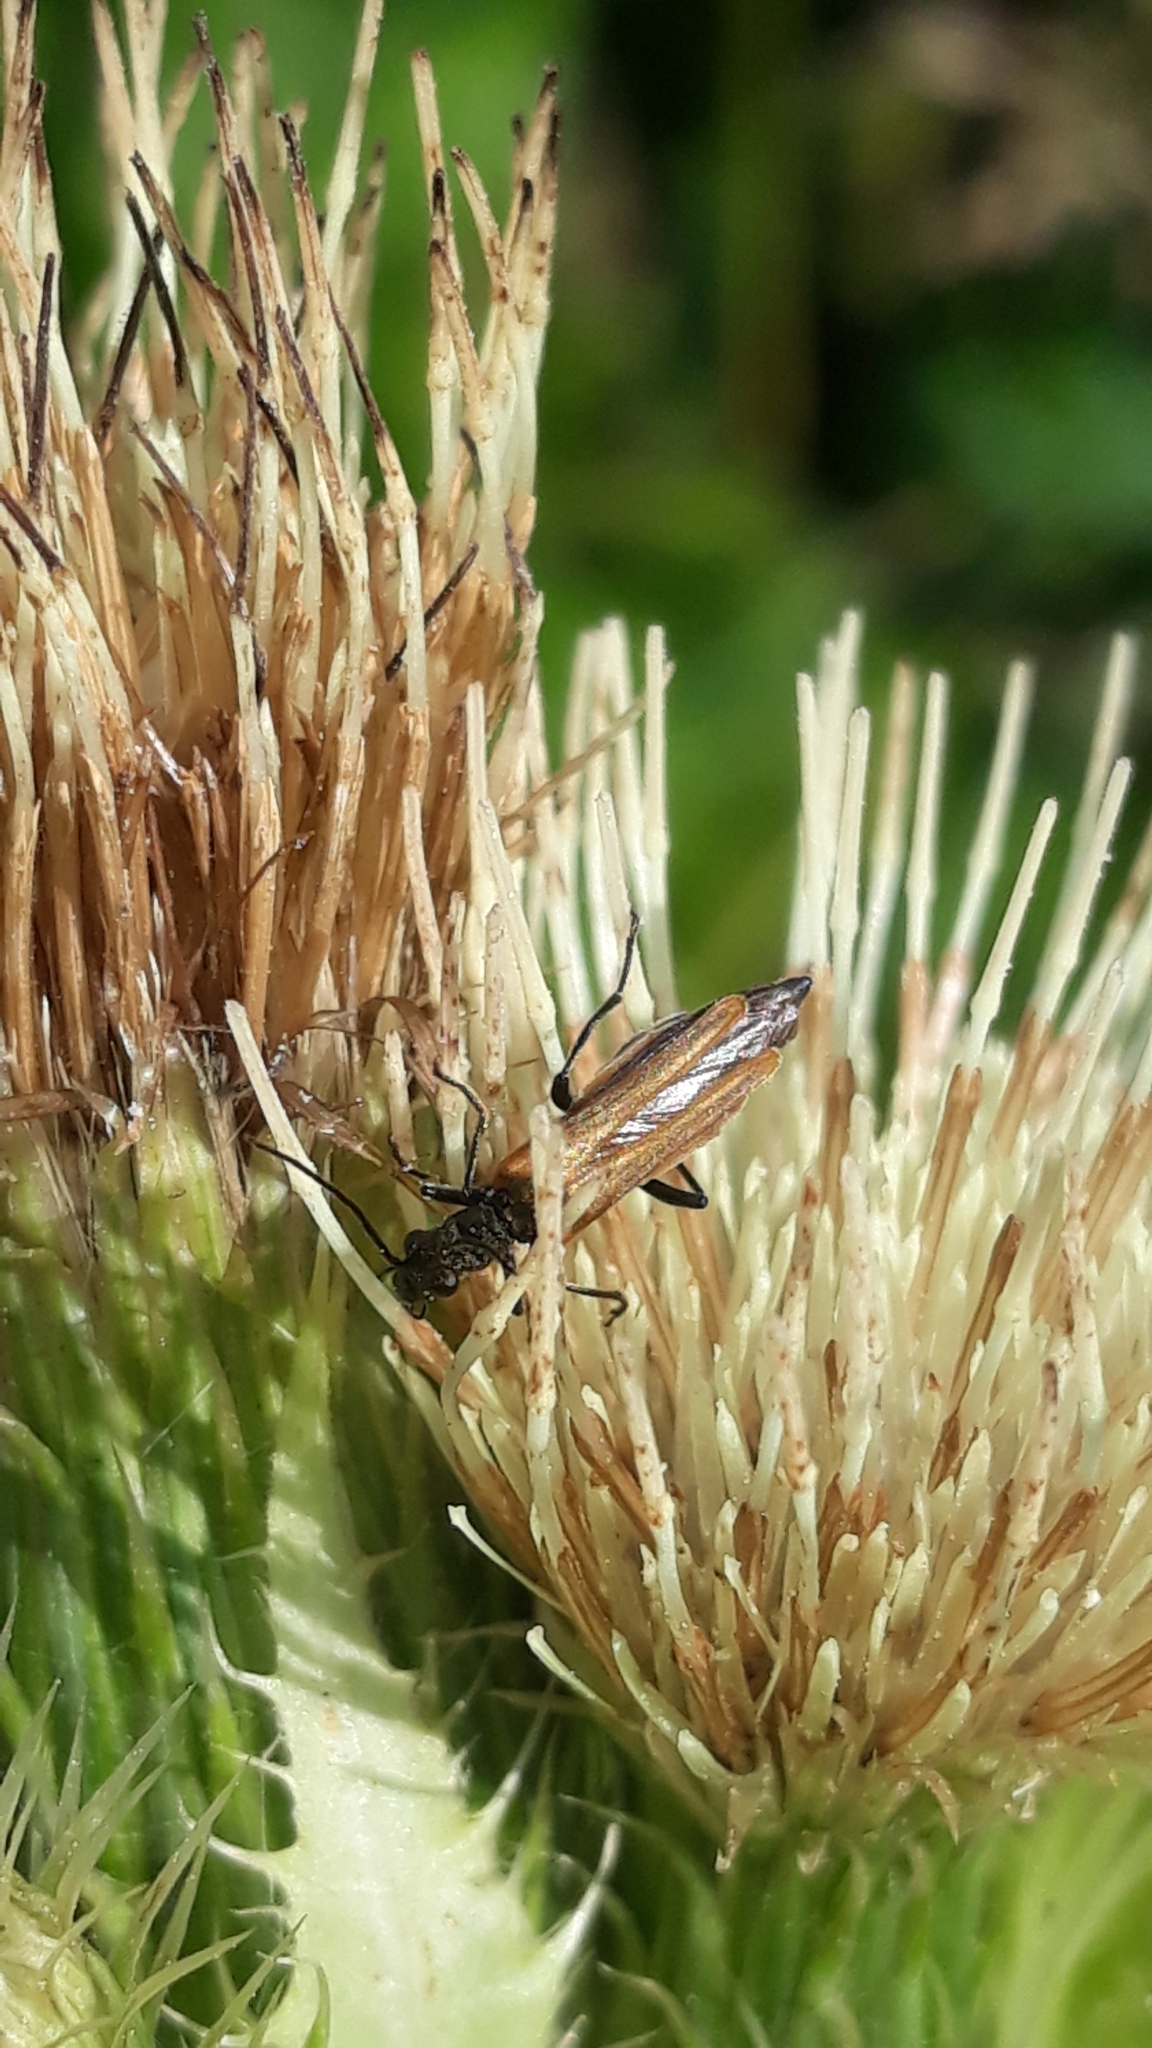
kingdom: Animalia
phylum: Arthropoda
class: Insecta
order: Coleoptera
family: Oedemeridae
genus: Oedemera
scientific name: Oedemera femorata
